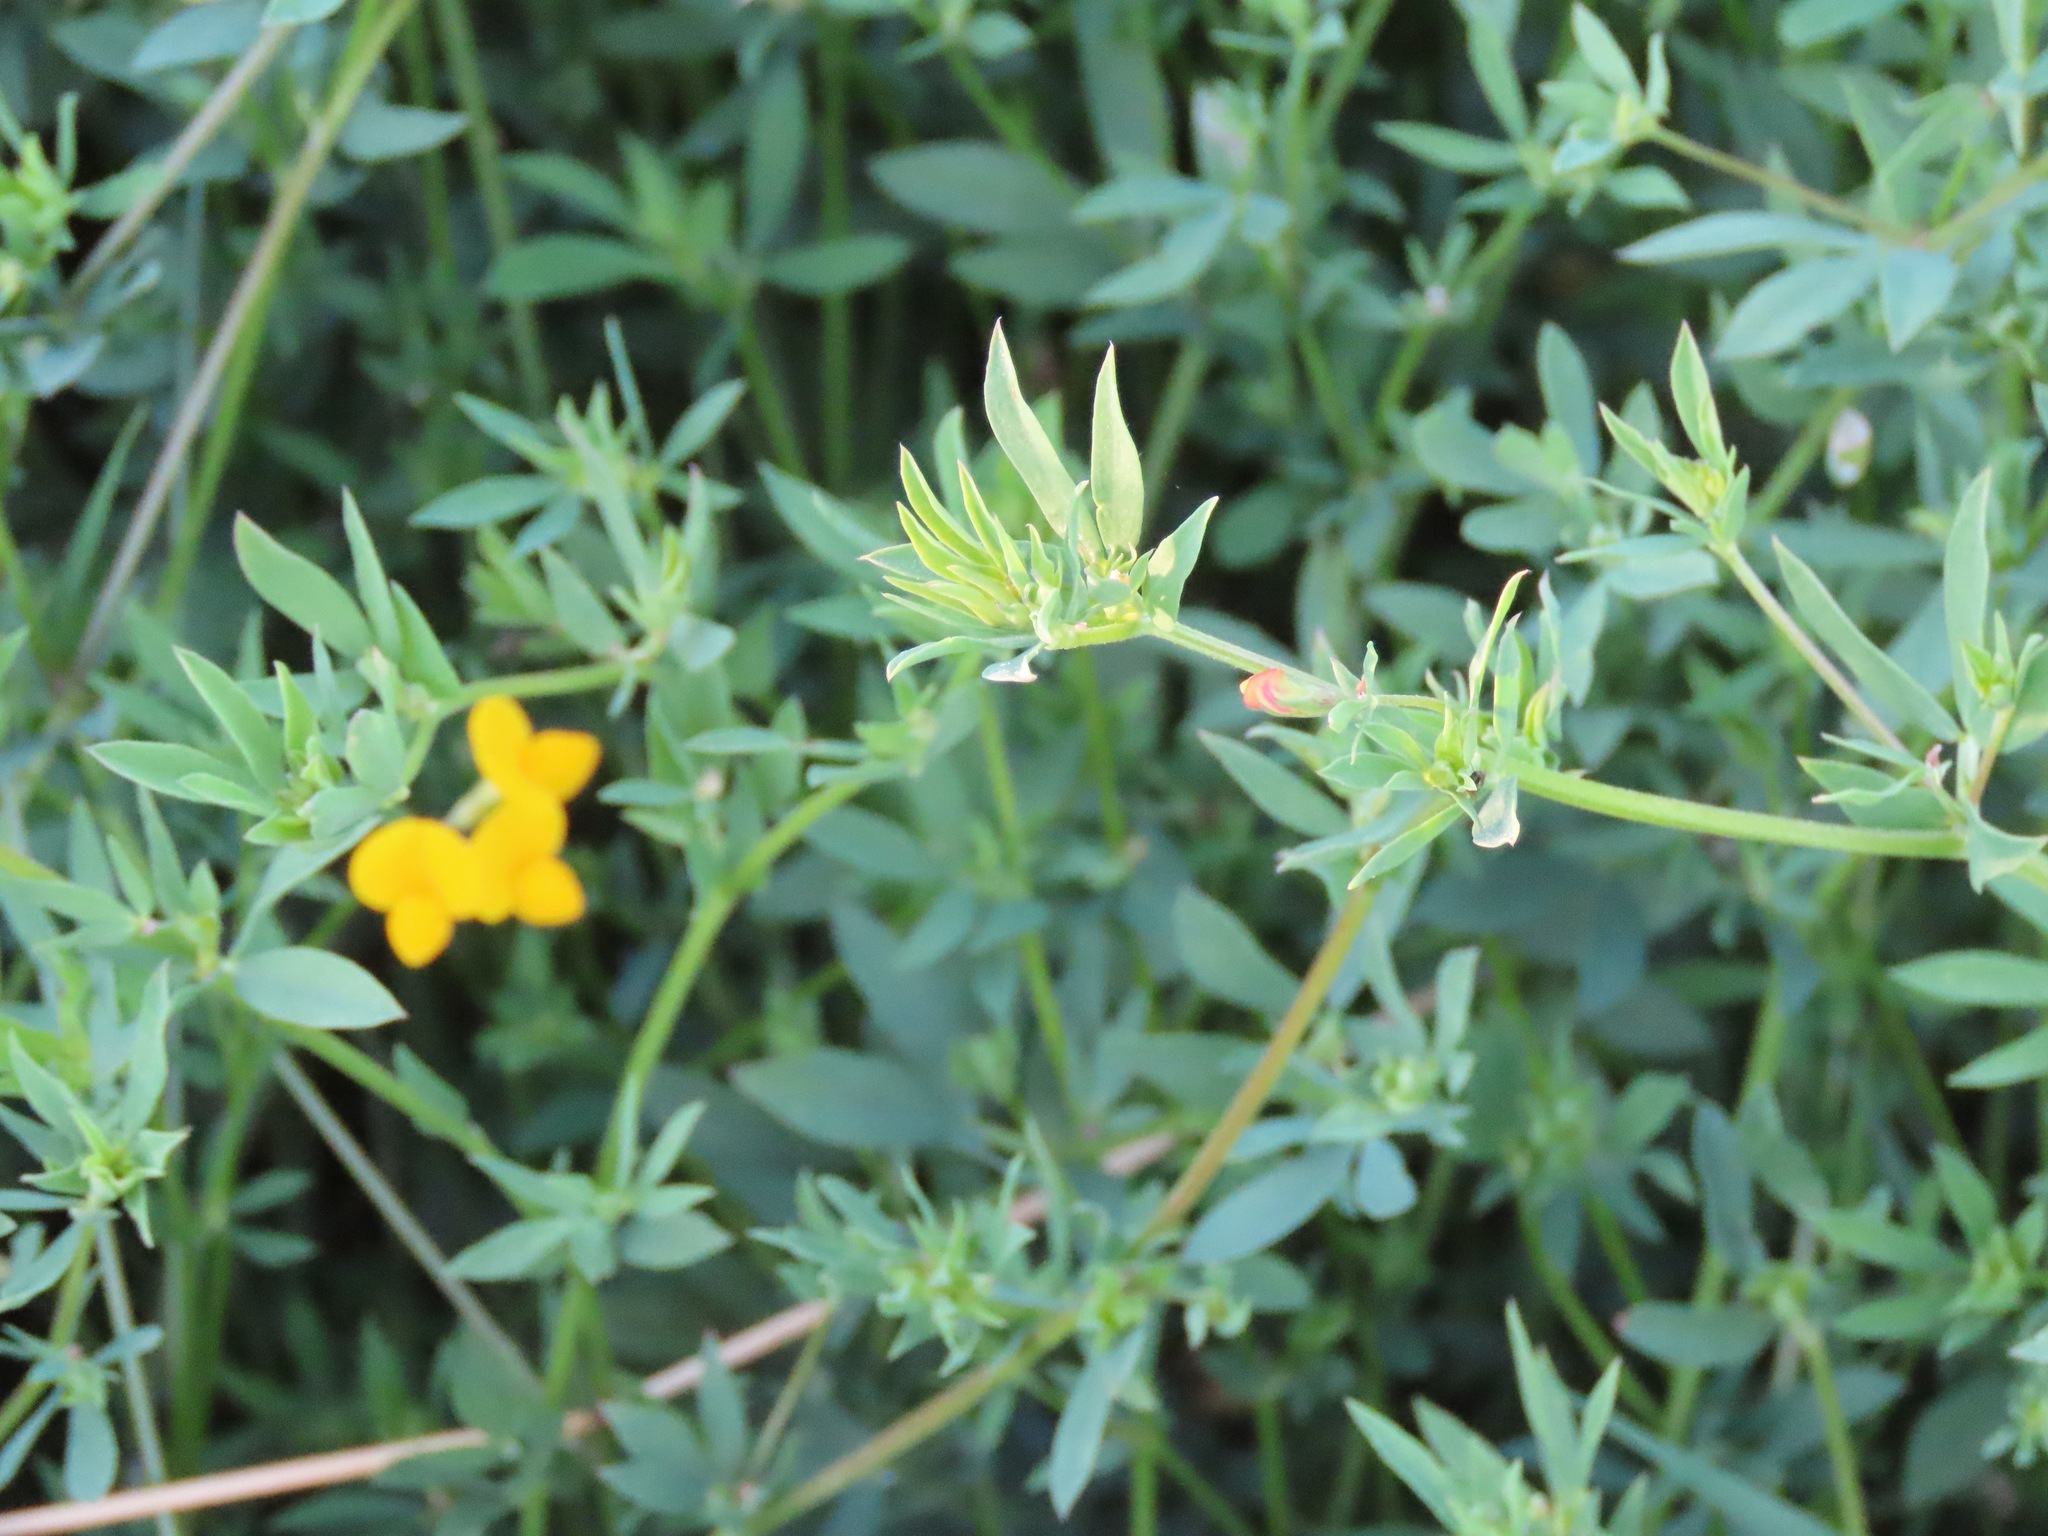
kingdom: Plantae
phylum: Tracheophyta
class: Magnoliopsida
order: Fabales
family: Fabaceae
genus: Lotus
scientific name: Lotus tenuis
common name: Narrow-leaved bird's-foot-trefoil
